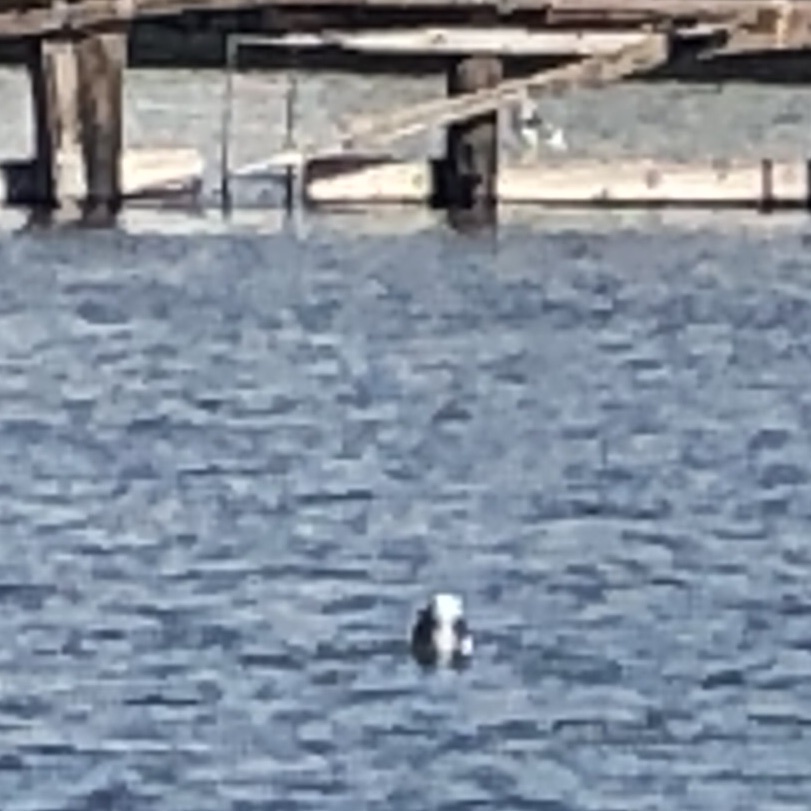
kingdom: Animalia
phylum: Chordata
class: Aves
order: Charadriiformes
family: Laridae
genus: Larus
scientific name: Larus occidentalis
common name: Western gull
